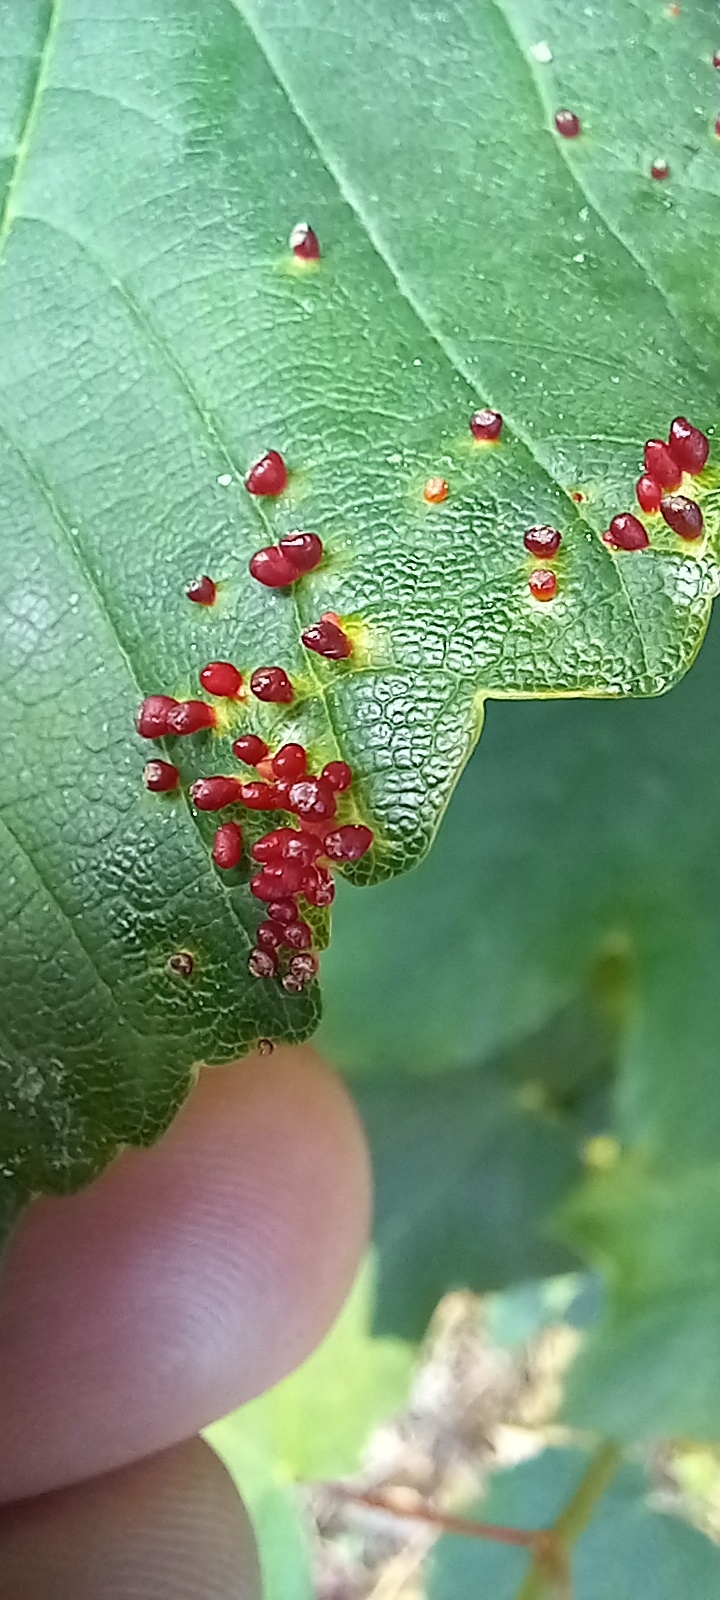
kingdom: Animalia
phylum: Arthropoda
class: Arachnida
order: Trombidiformes
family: Eriophyidae
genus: Aceria
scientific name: Aceria cephaloneus
